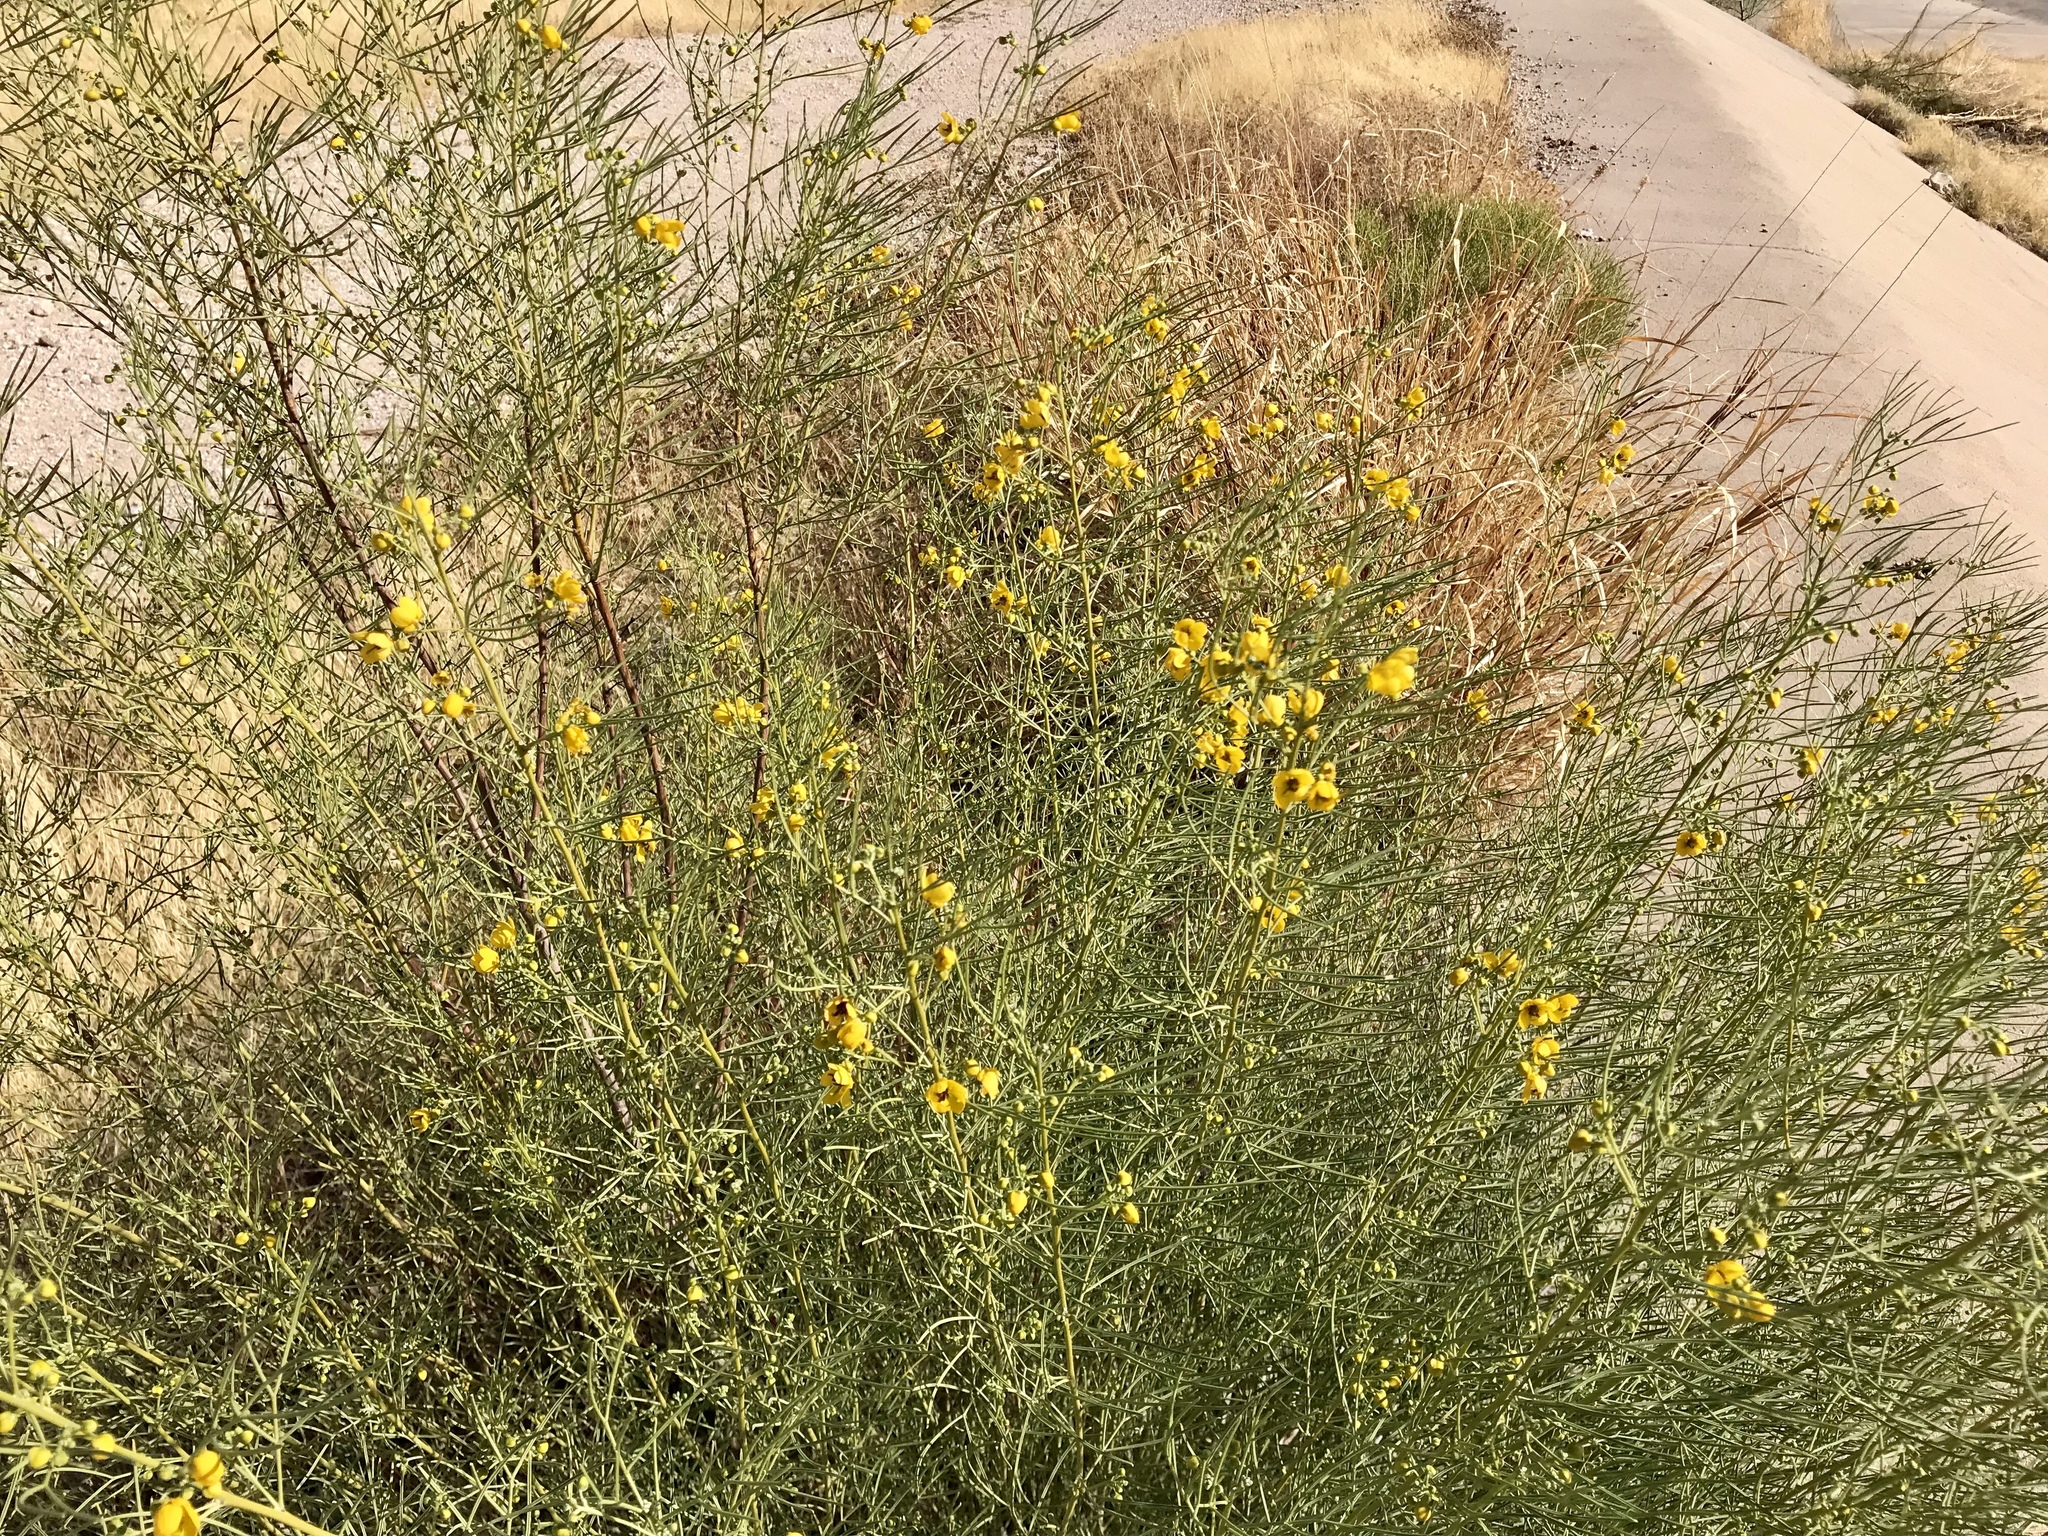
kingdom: Plantae
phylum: Tracheophyta
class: Magnoliopsida
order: Fabales
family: Fabaceae
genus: Senna
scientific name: Senna artemisioides
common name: Burnt-leaved acacia
